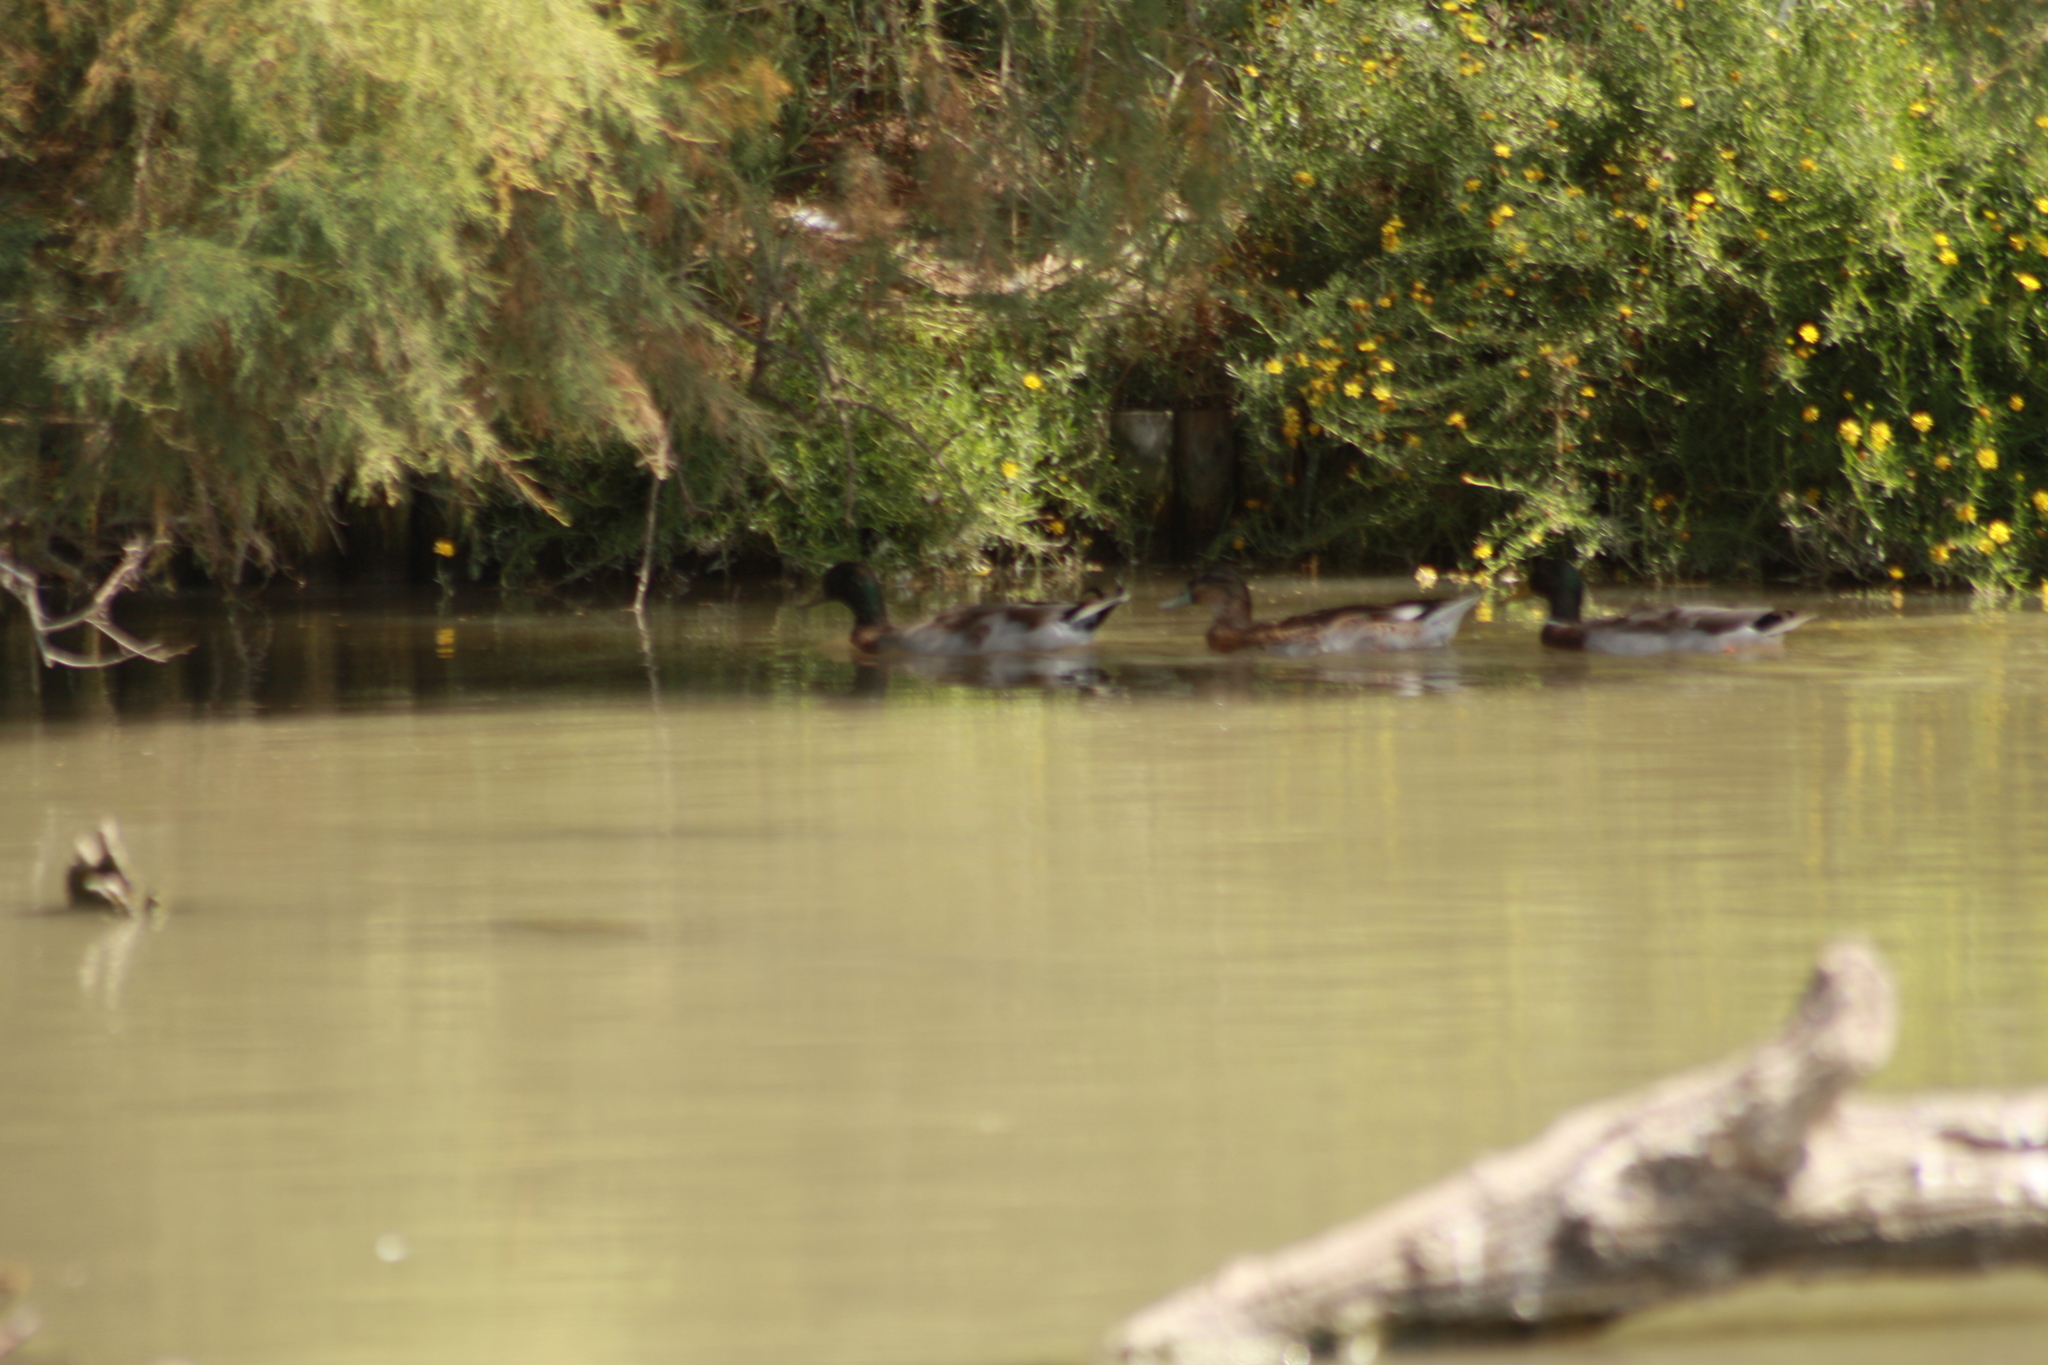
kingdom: Animalia
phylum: Chordata
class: Aves
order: Anseriformes
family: Anatidae
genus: Anas
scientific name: Anas platyrhynchos
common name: Mallard
